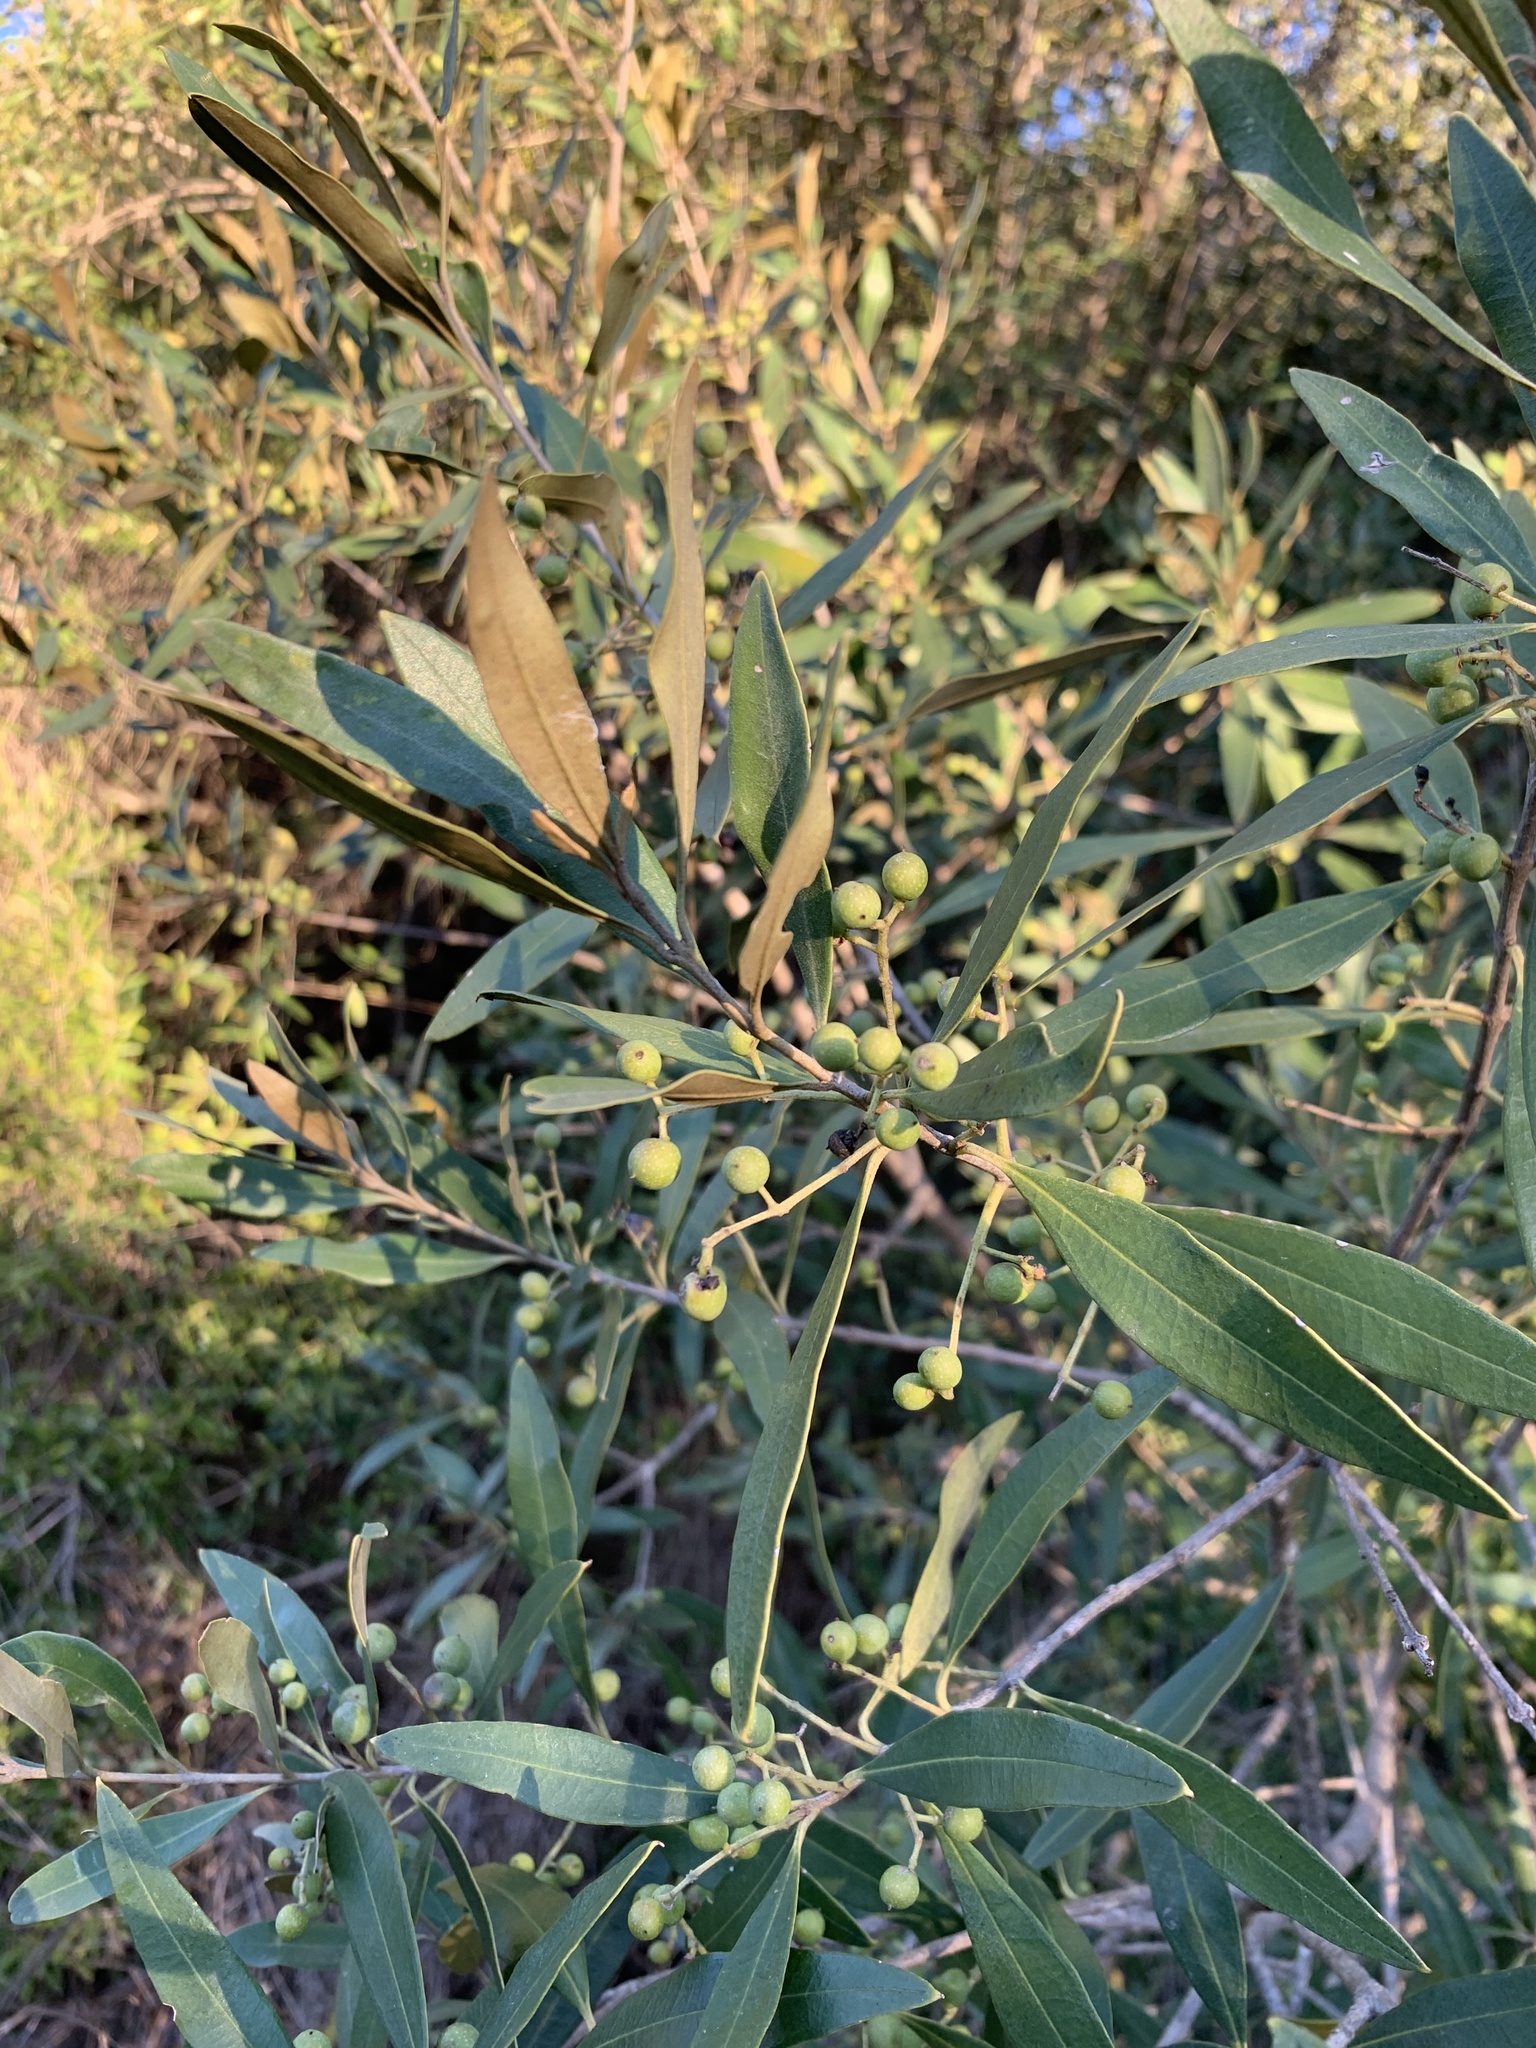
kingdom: Plantae
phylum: Tracheophyta
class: Magnoliopsida
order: Lamiales
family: Oleaceae
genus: Olea
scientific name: Olea europaea
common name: Olive
